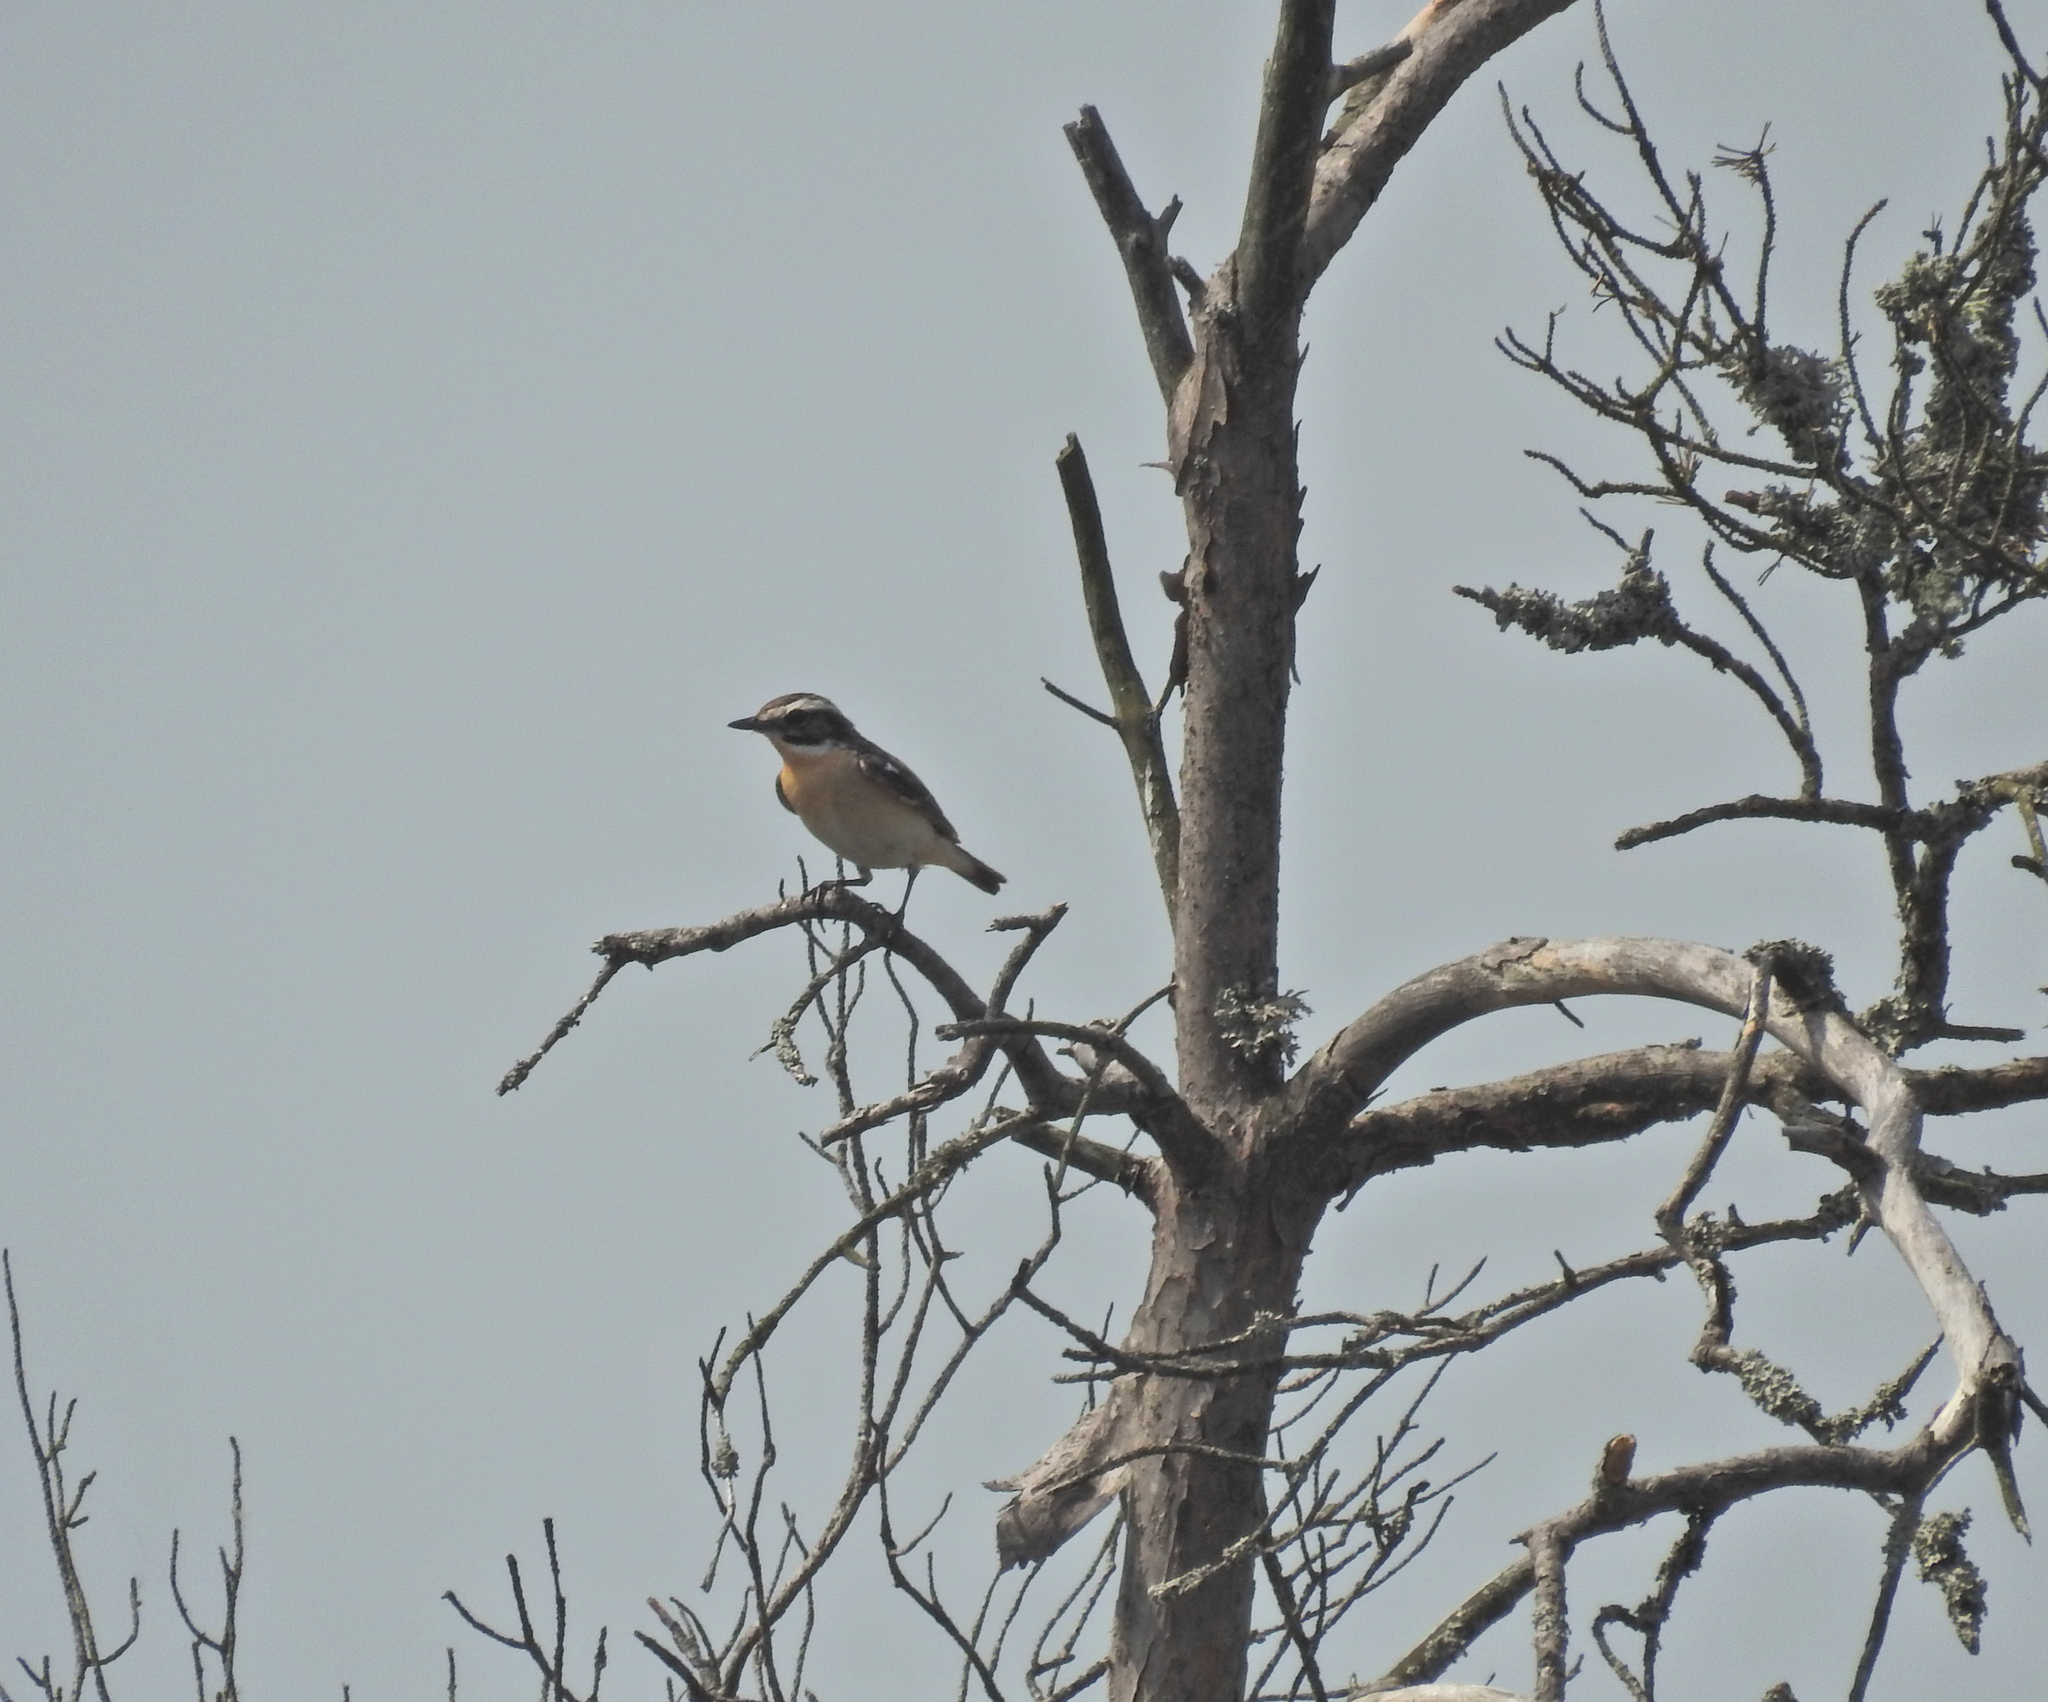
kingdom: Animalia
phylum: Chordata
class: Aves
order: Passeriformes
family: Muscicapidae
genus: Saxicola
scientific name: Saxicola rubetra
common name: Whinchat
